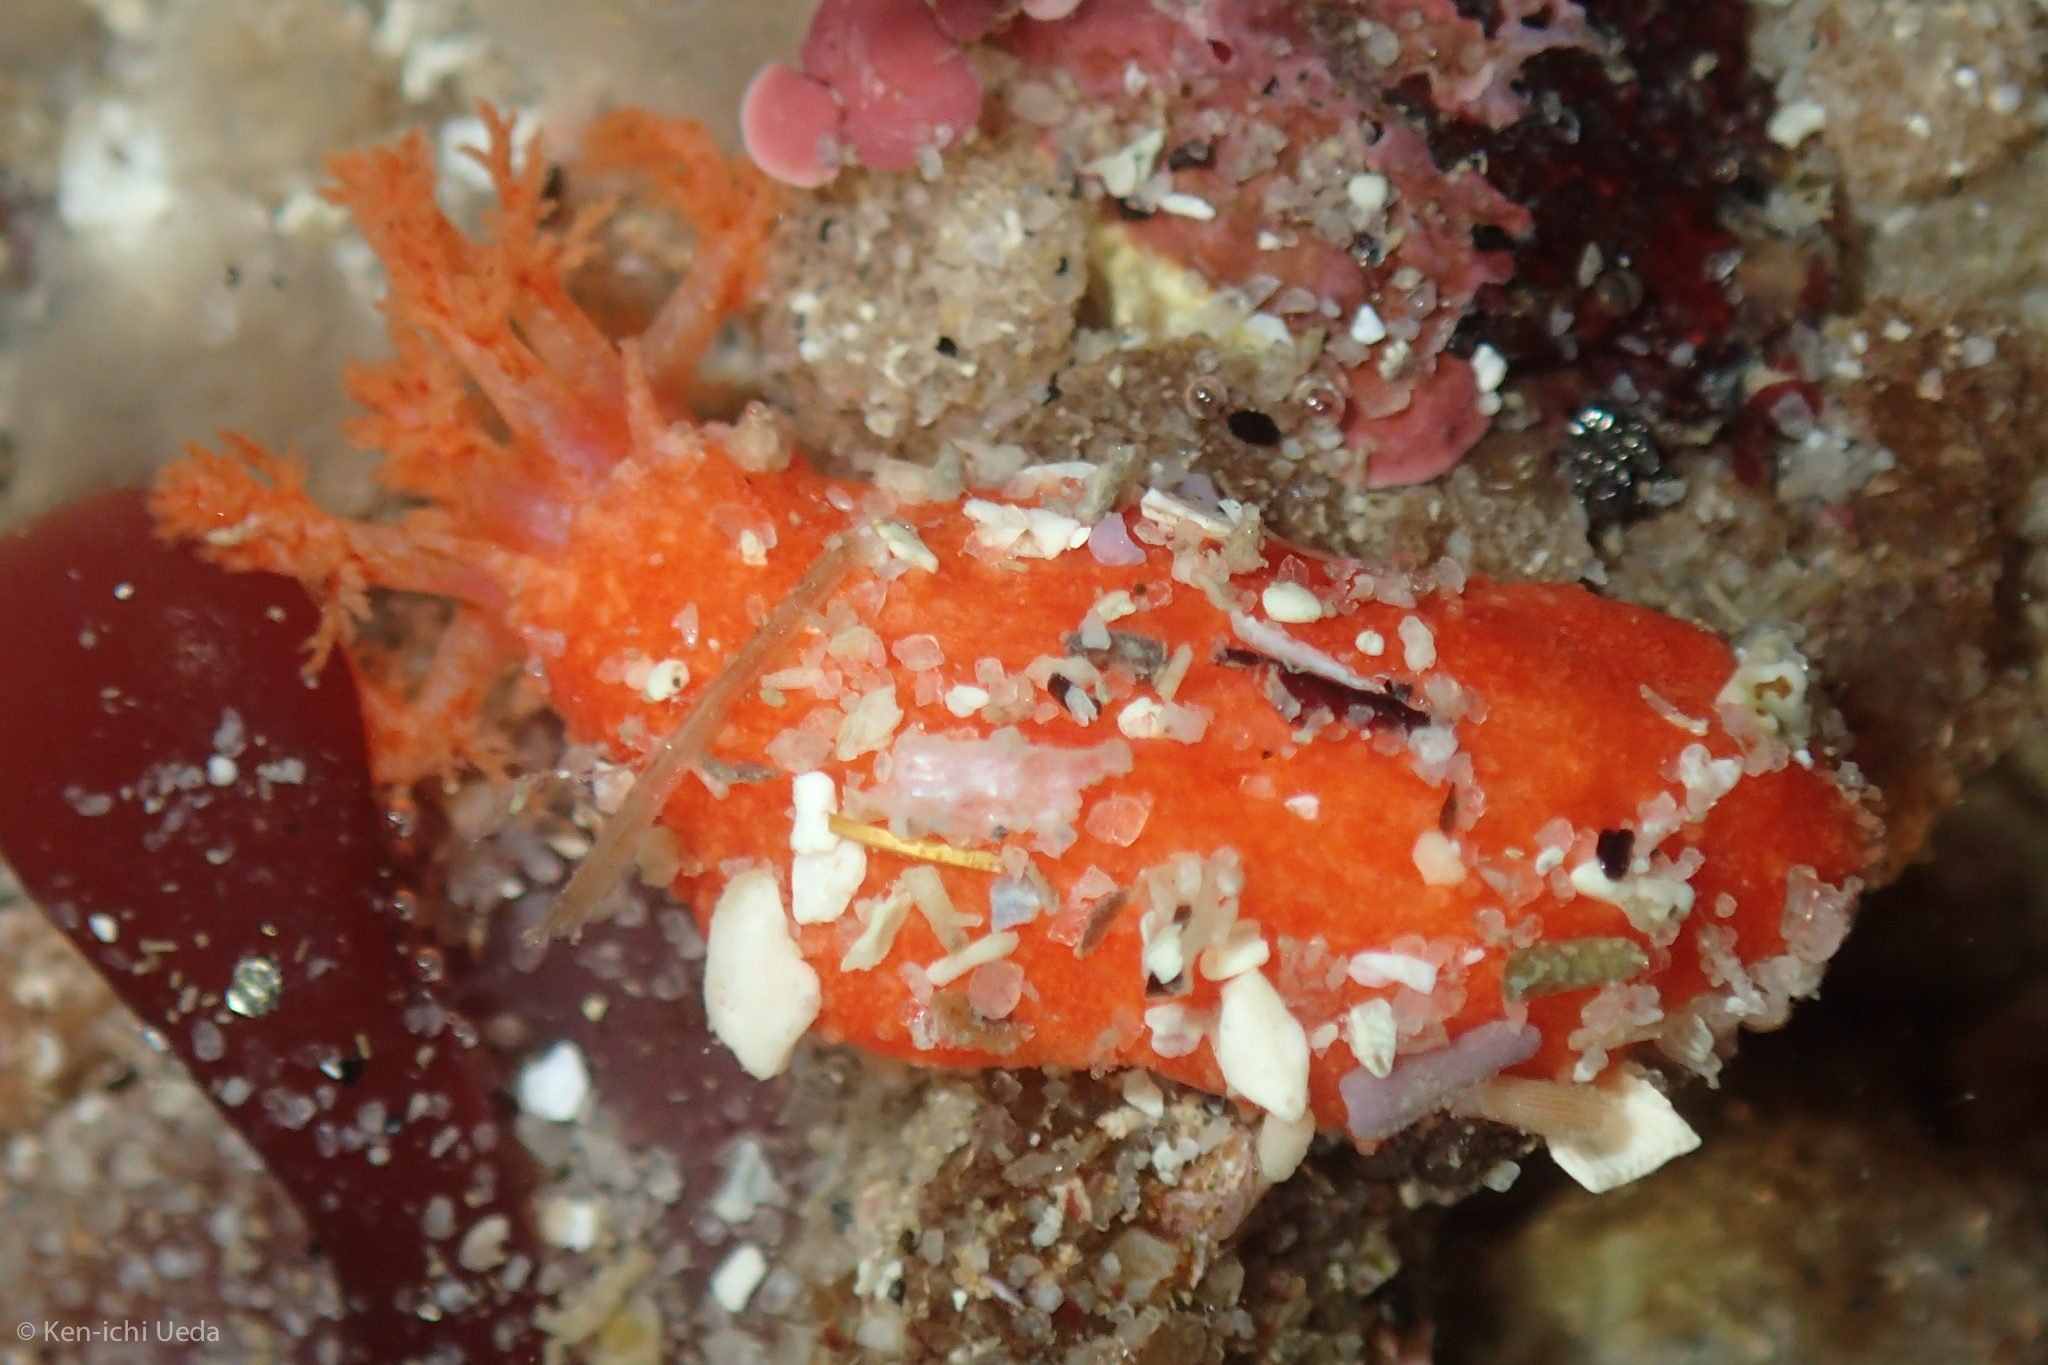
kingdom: Animalia
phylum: Echinodermata
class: Holothuroidea
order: Dendrochirotida
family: Psolidae
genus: Lissothuria
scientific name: Lissothuria nutriens
